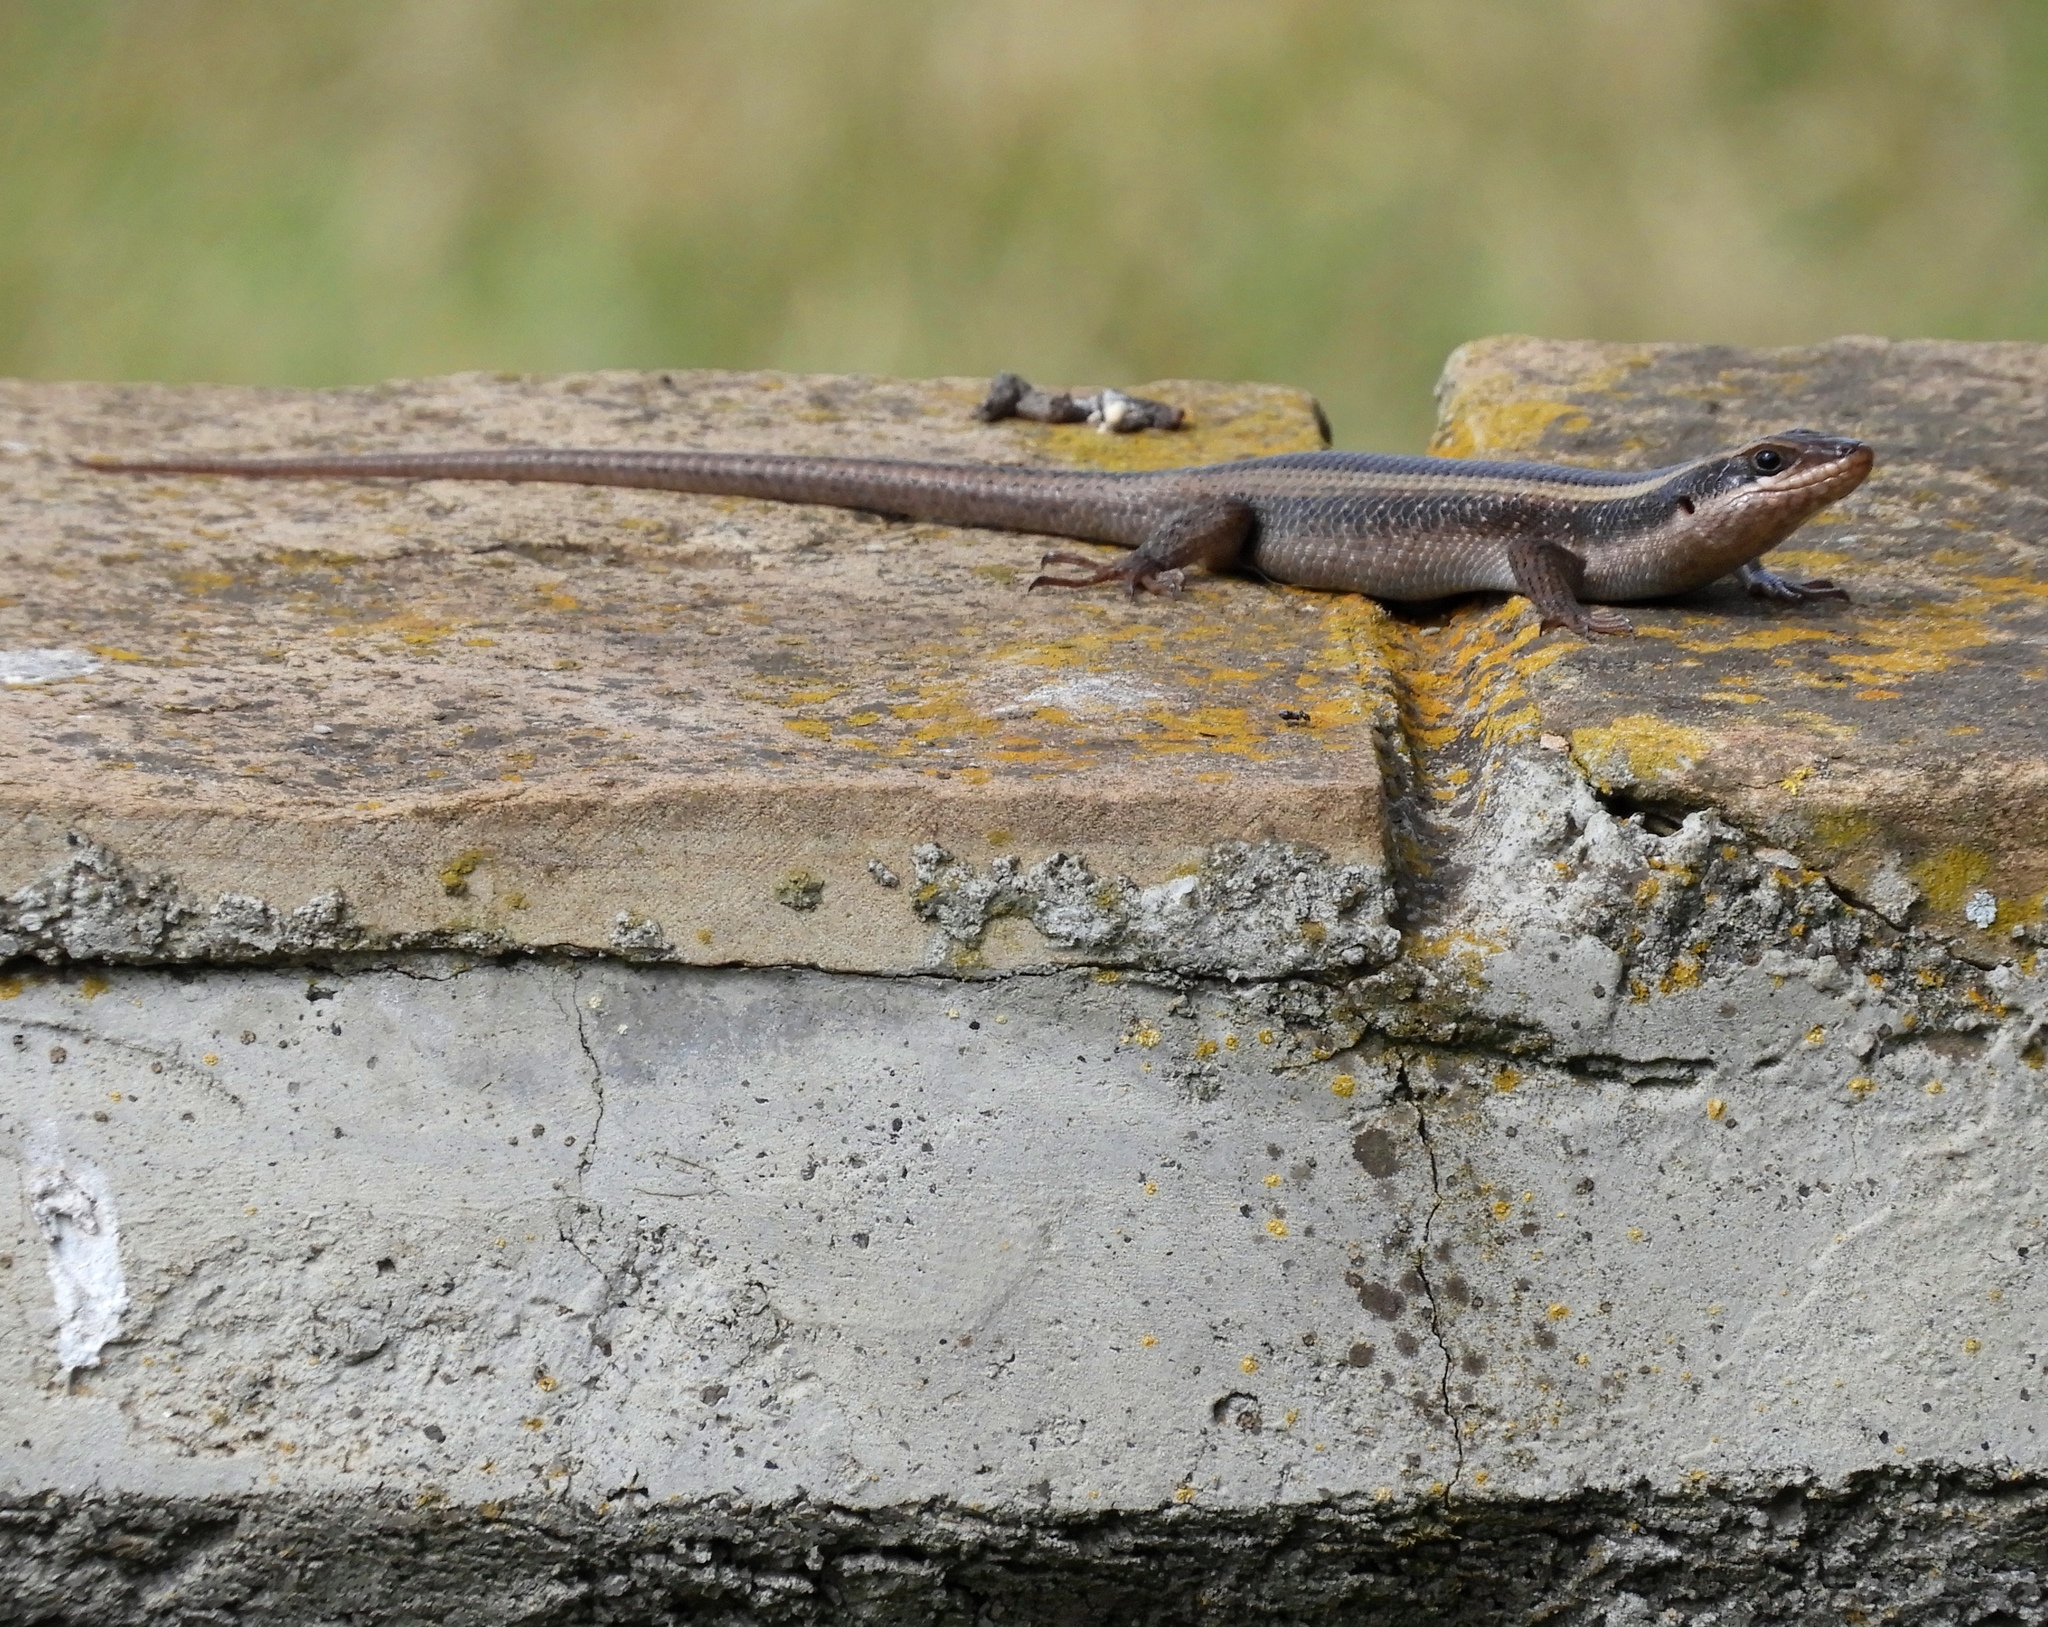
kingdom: Animalia
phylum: Chordata
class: Squamata
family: Scincidae
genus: Trachylepis
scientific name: Trachylepis striata
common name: African striped mabuya
